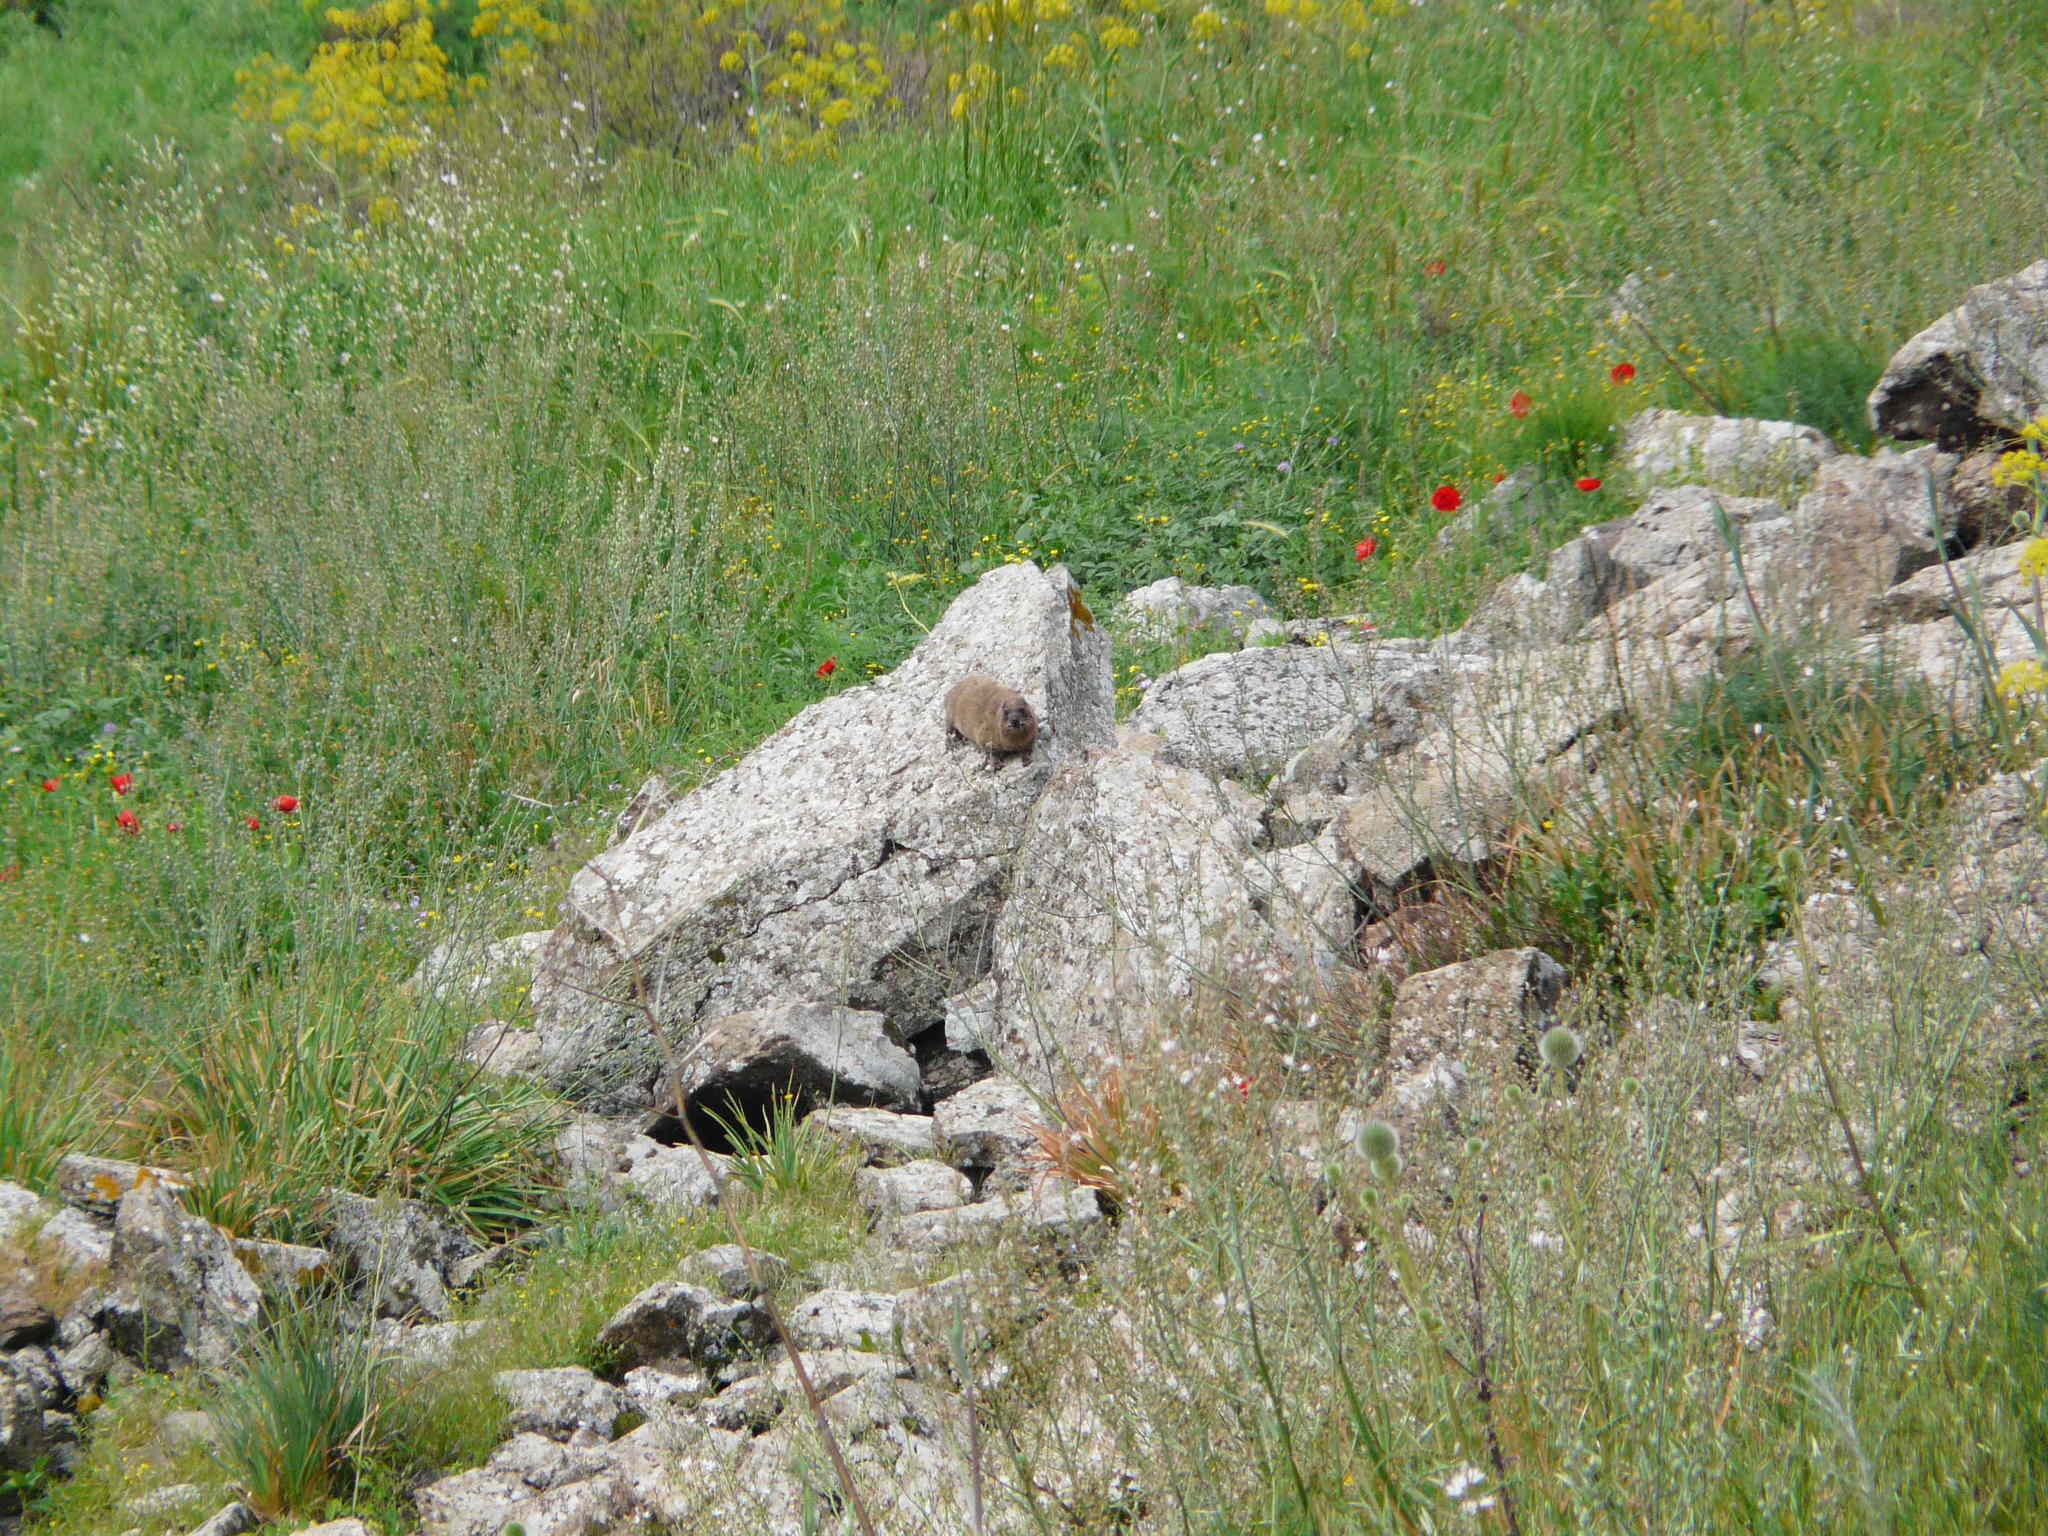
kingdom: Animalia
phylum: Chordata
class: Mammalia
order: Hyracoidea
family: Procaviidae
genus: Procavia
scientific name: Procavia capensis
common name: Rock hyrax
